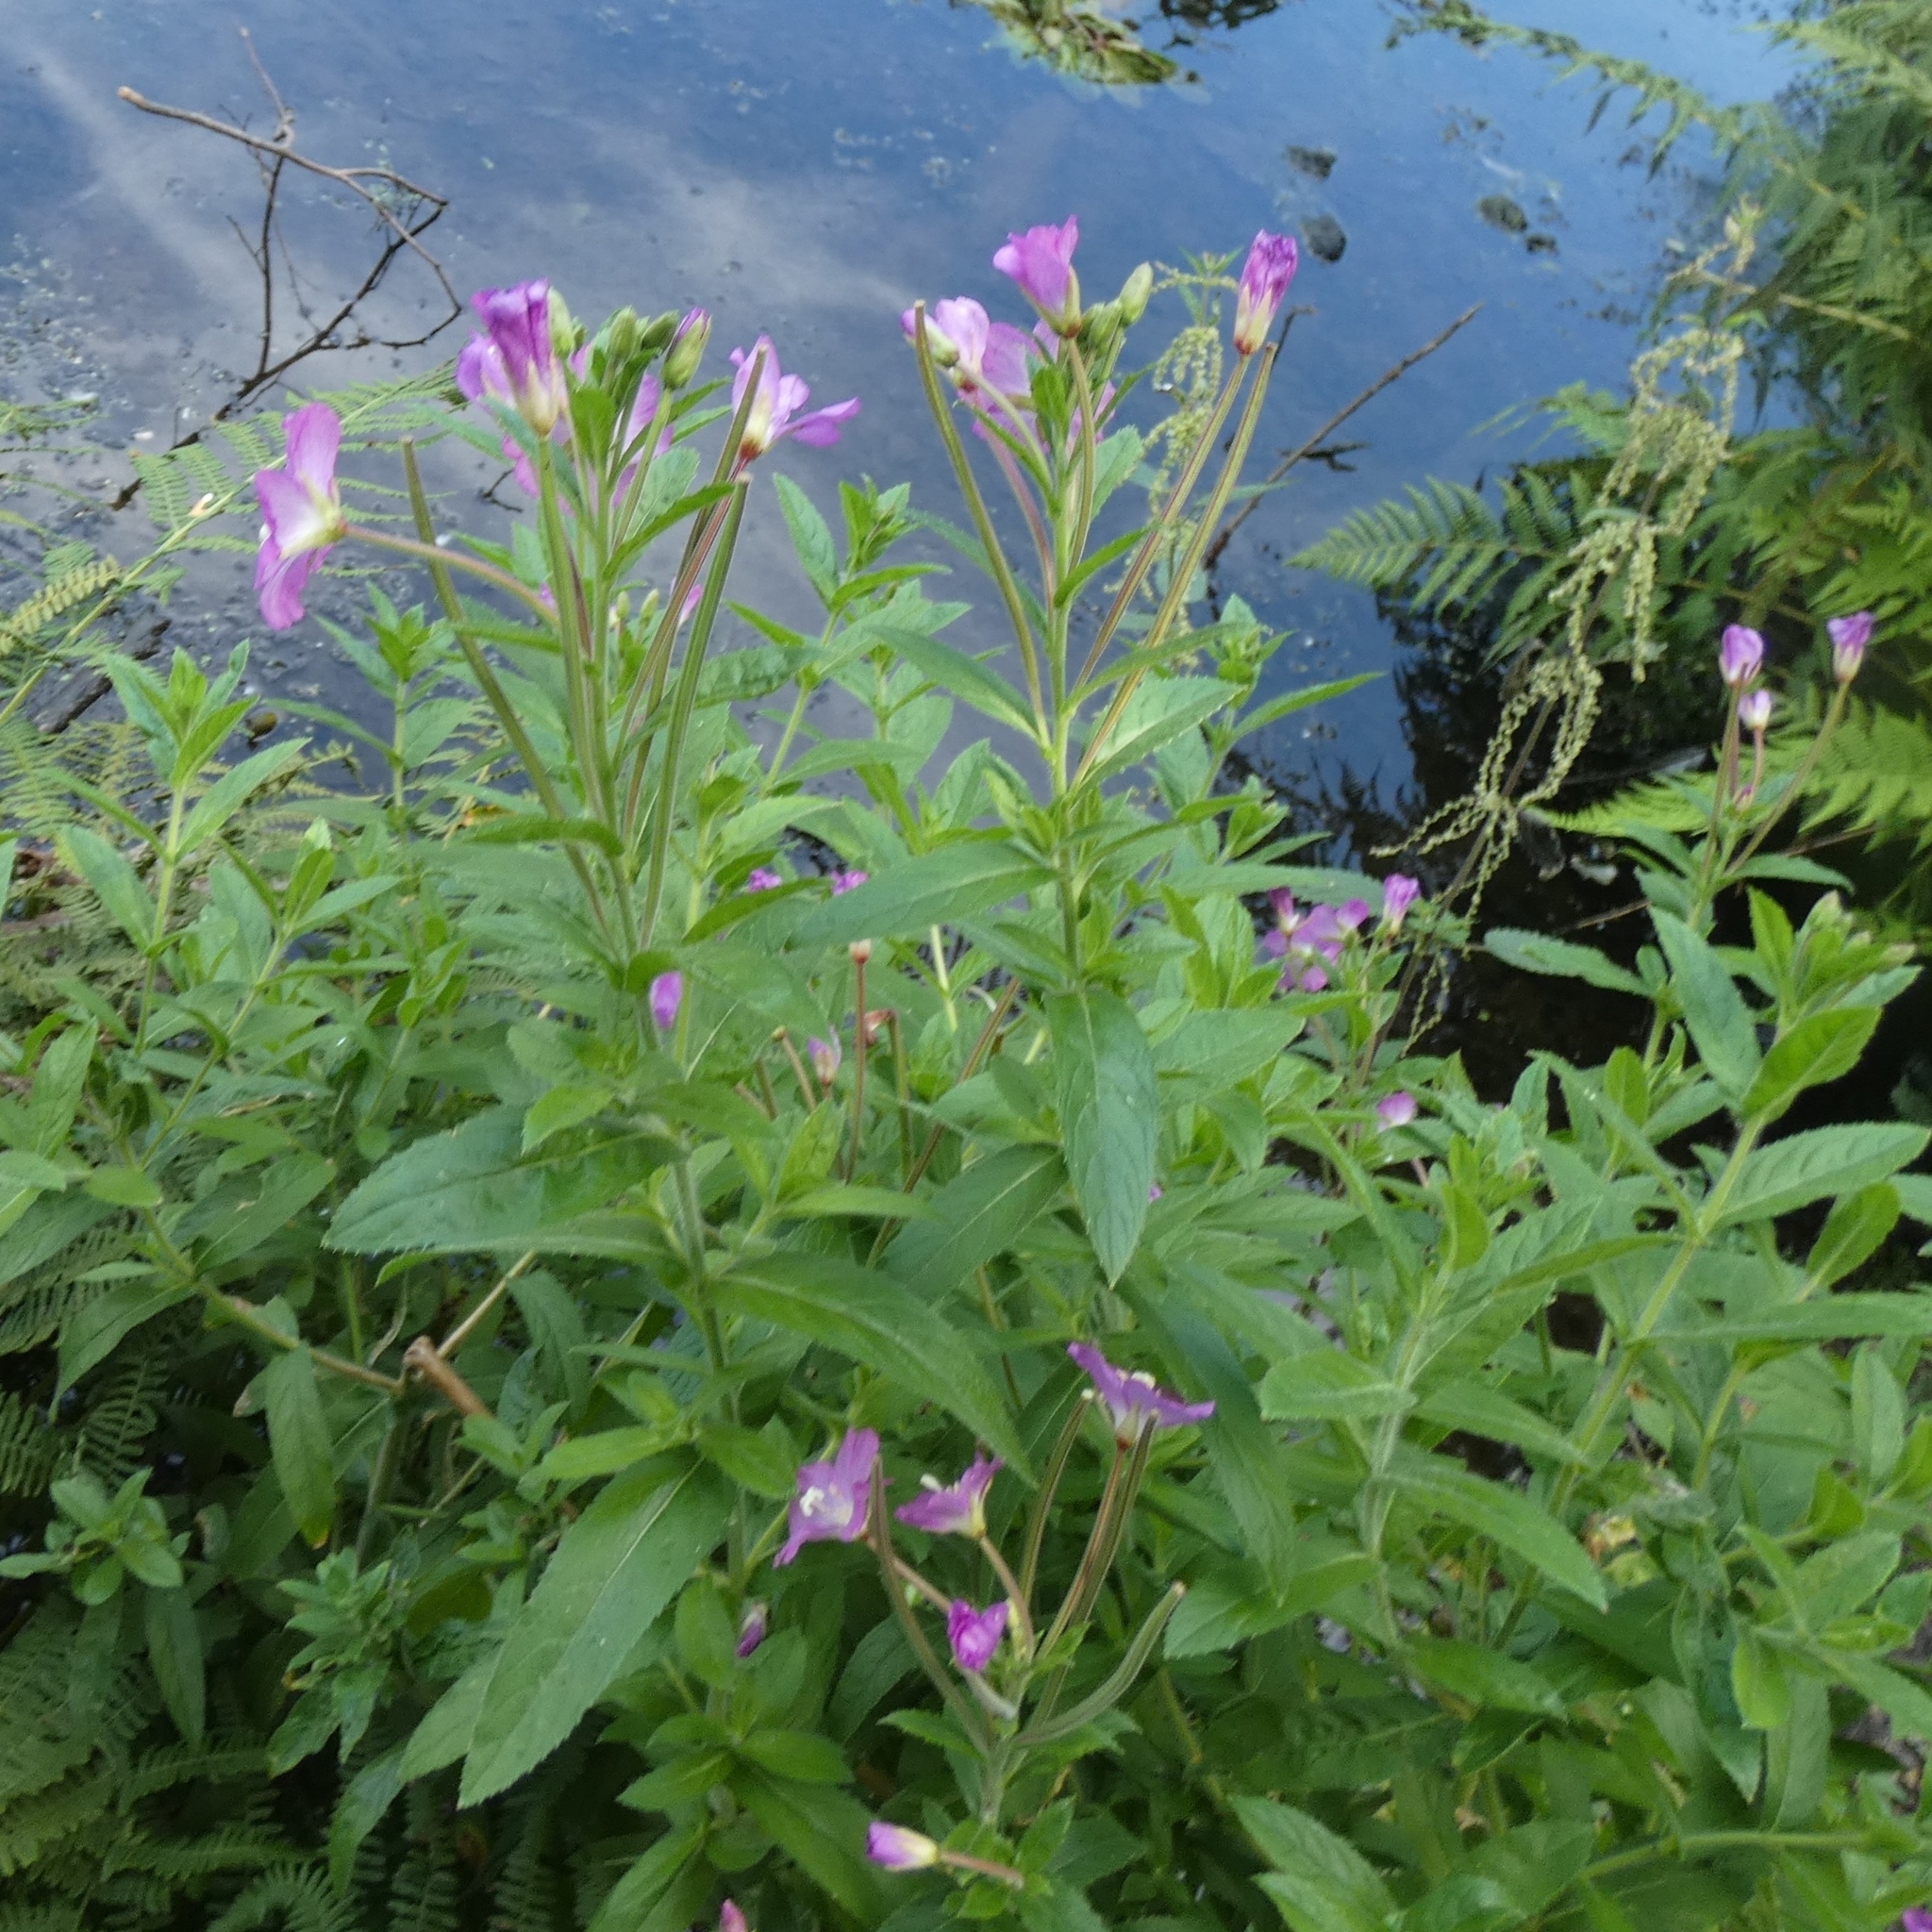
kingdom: Plantae
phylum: Tracheophyta
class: Magnoliopsida
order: Myrtales
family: Onagraceae
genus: Epilobium
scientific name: Epilobium hirsutum
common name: Great willowherb
